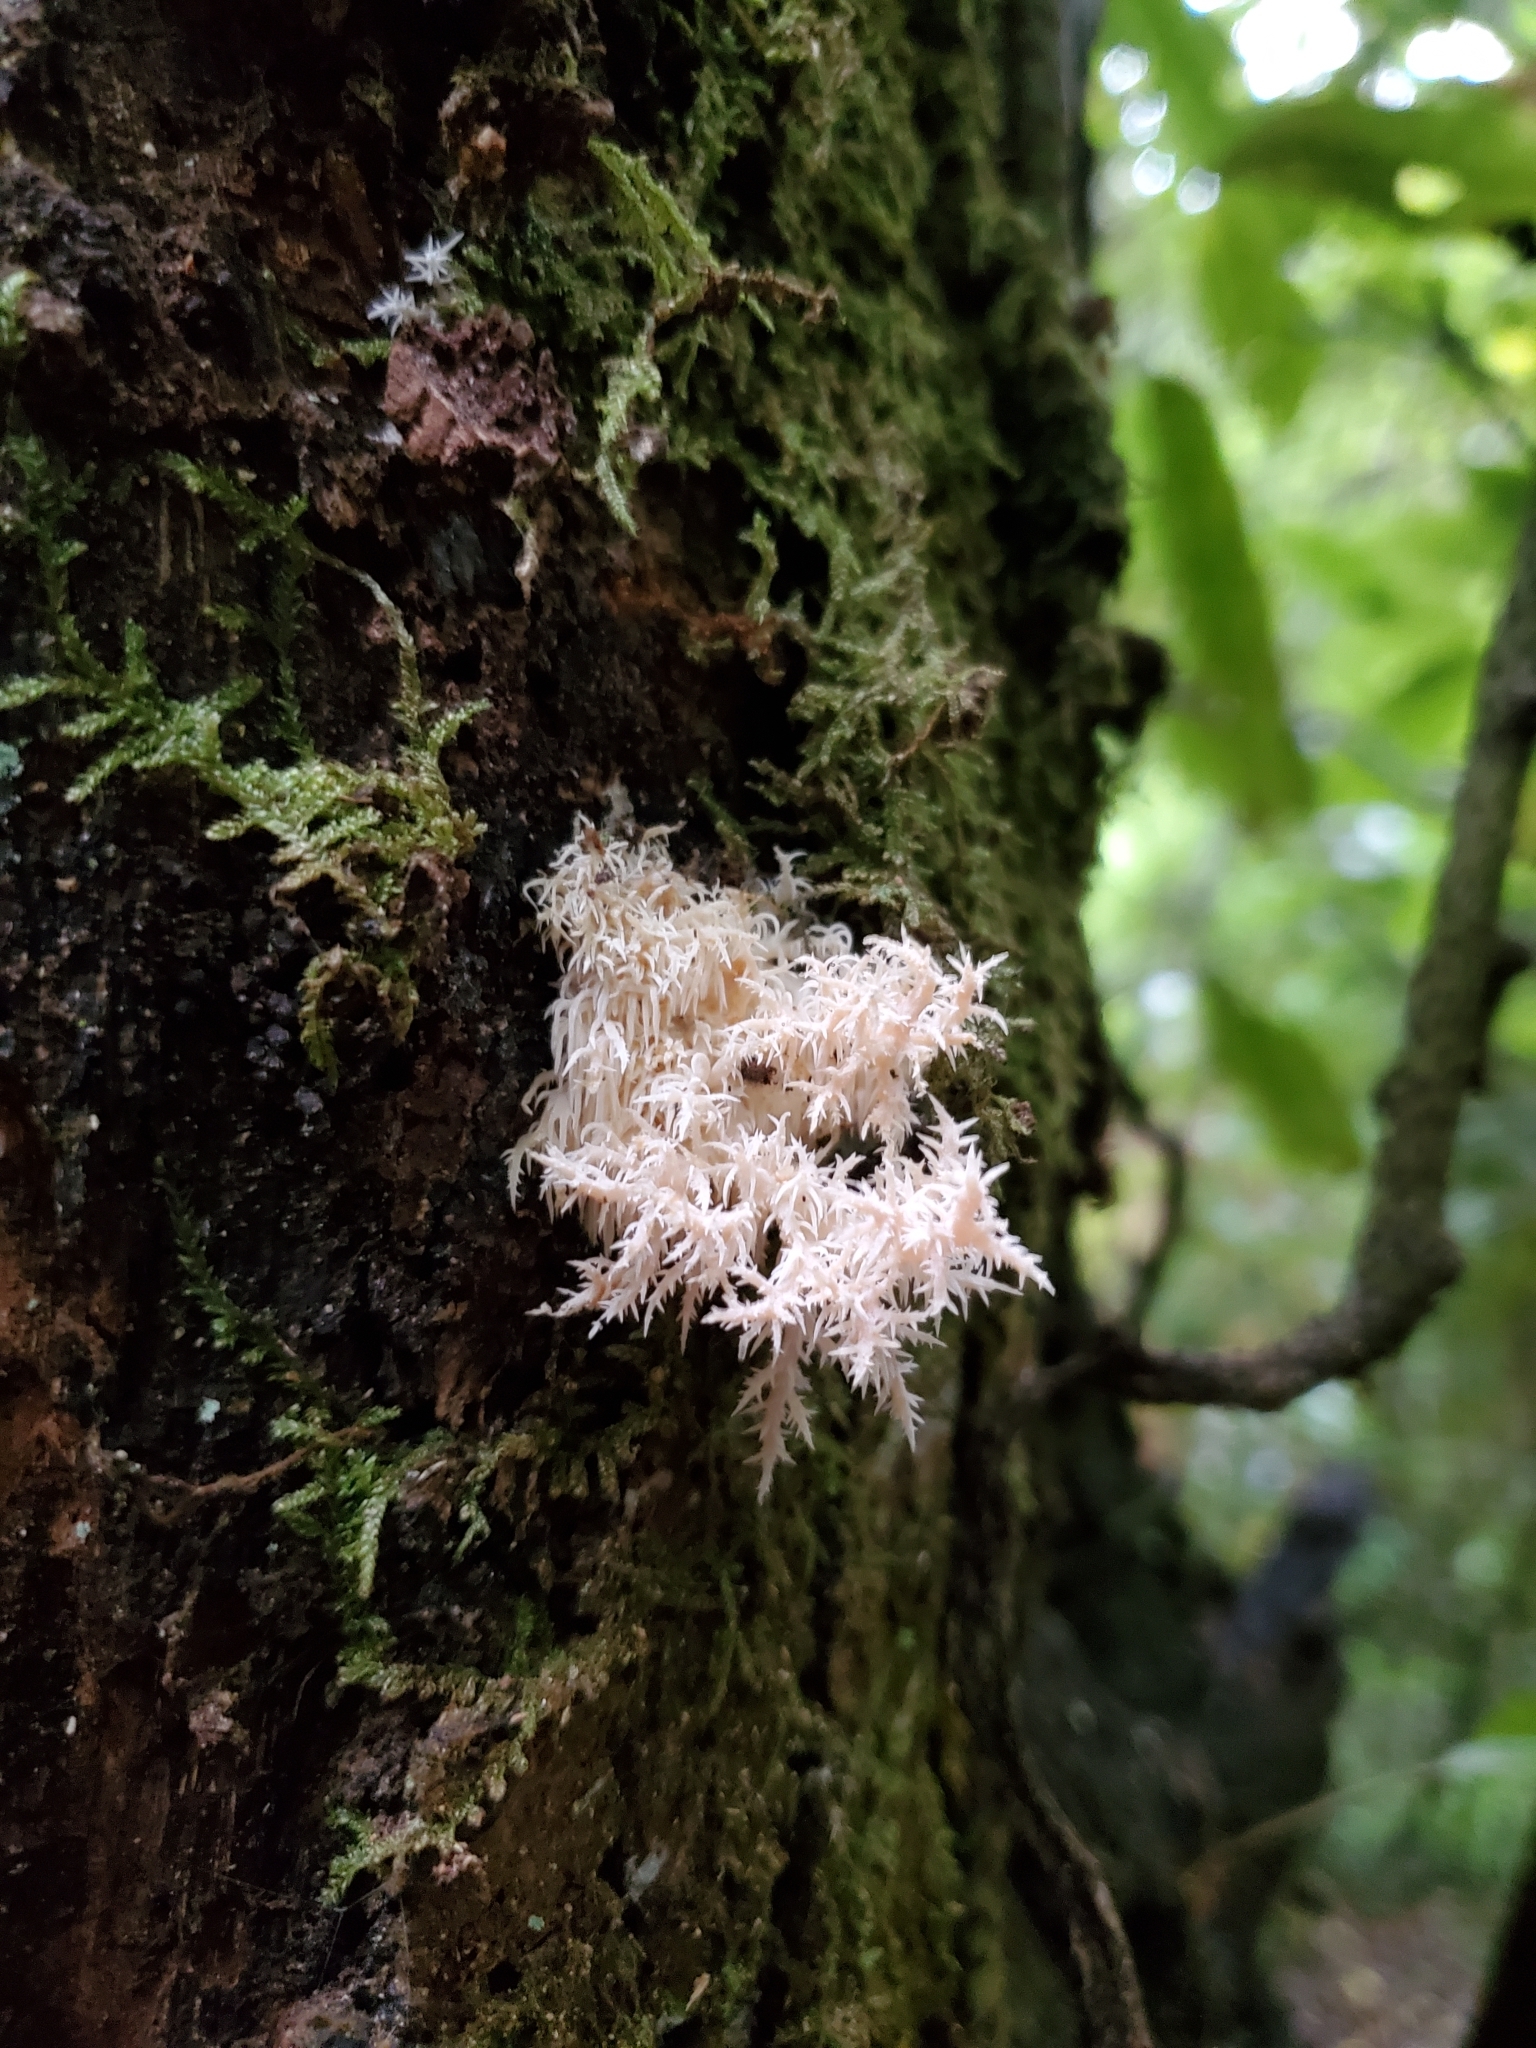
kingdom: Fungi
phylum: Basidiomycota
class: Agaricomycetes
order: Russulales
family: Hericiaceae
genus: Hericium
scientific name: Hericium novae-zealandiae
